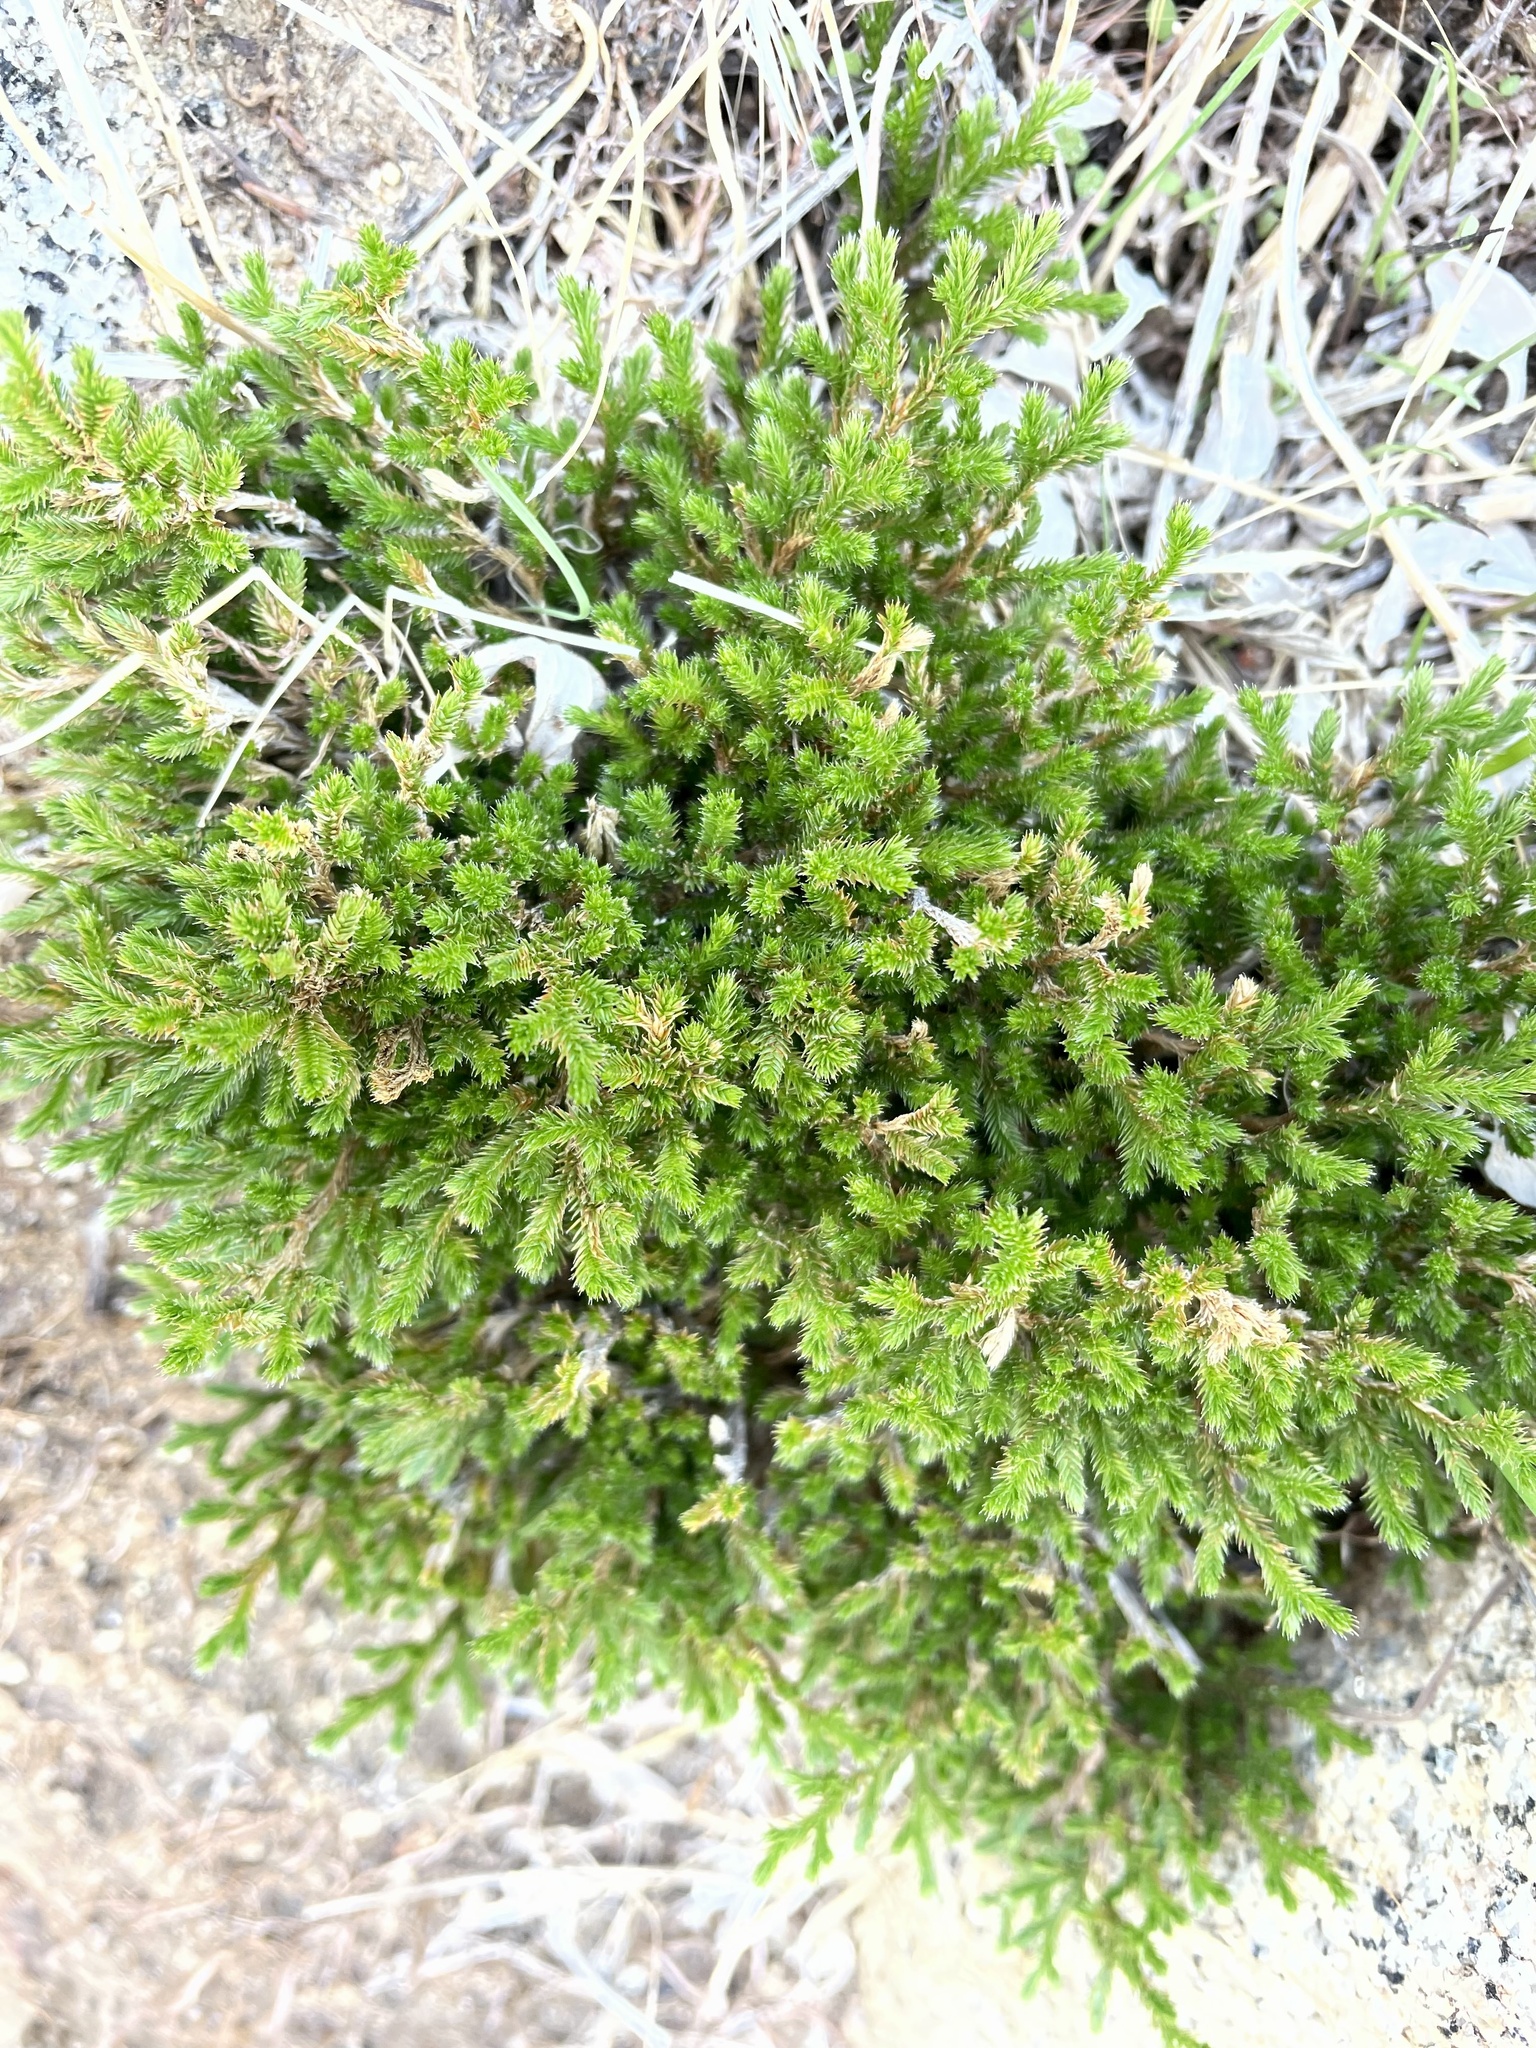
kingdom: Plantae
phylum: Tracheophyta
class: Lycopodiopsida
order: Selaginellales
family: Selaginellaceae
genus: Selaginella
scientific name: Selaginella bigelovii
